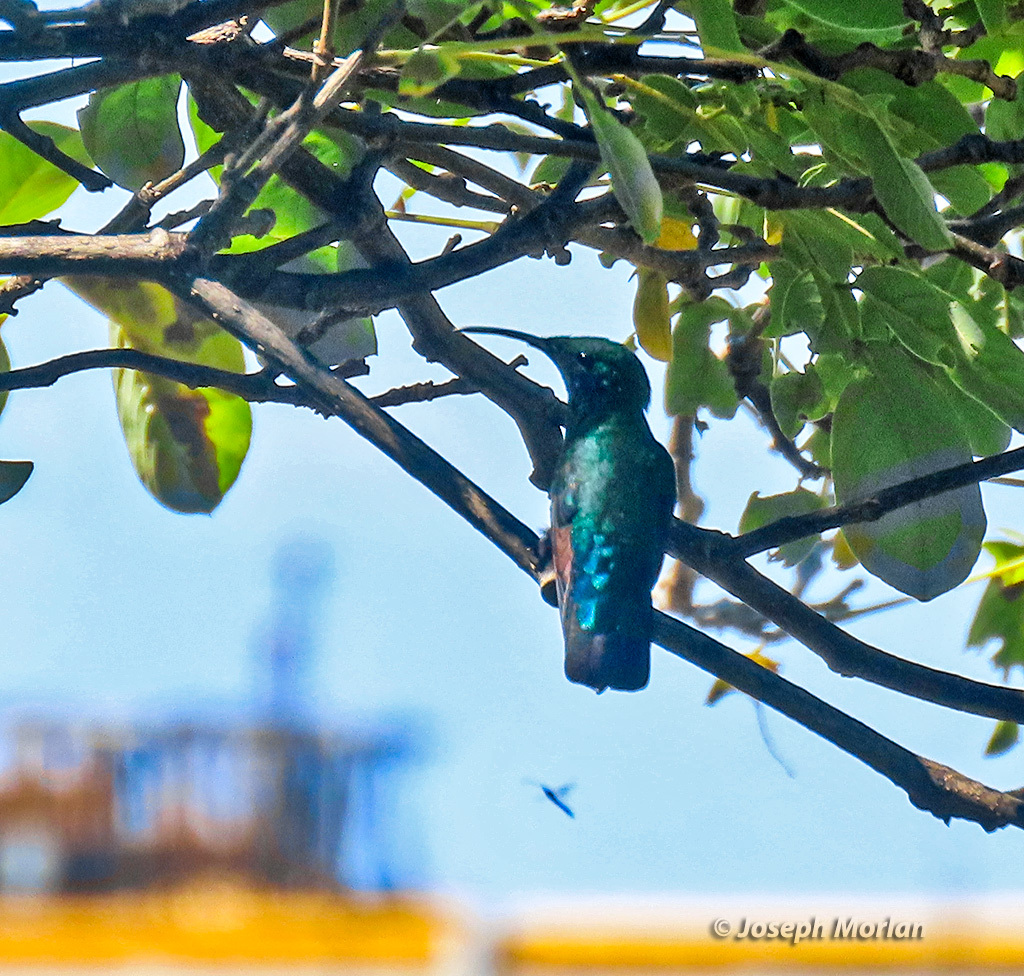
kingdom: Animalia
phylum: Chordata
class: Aves
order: Apodiformes
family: Trochilidae
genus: Eulampis
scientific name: Eulampis holosericeus
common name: Green-throated carib
